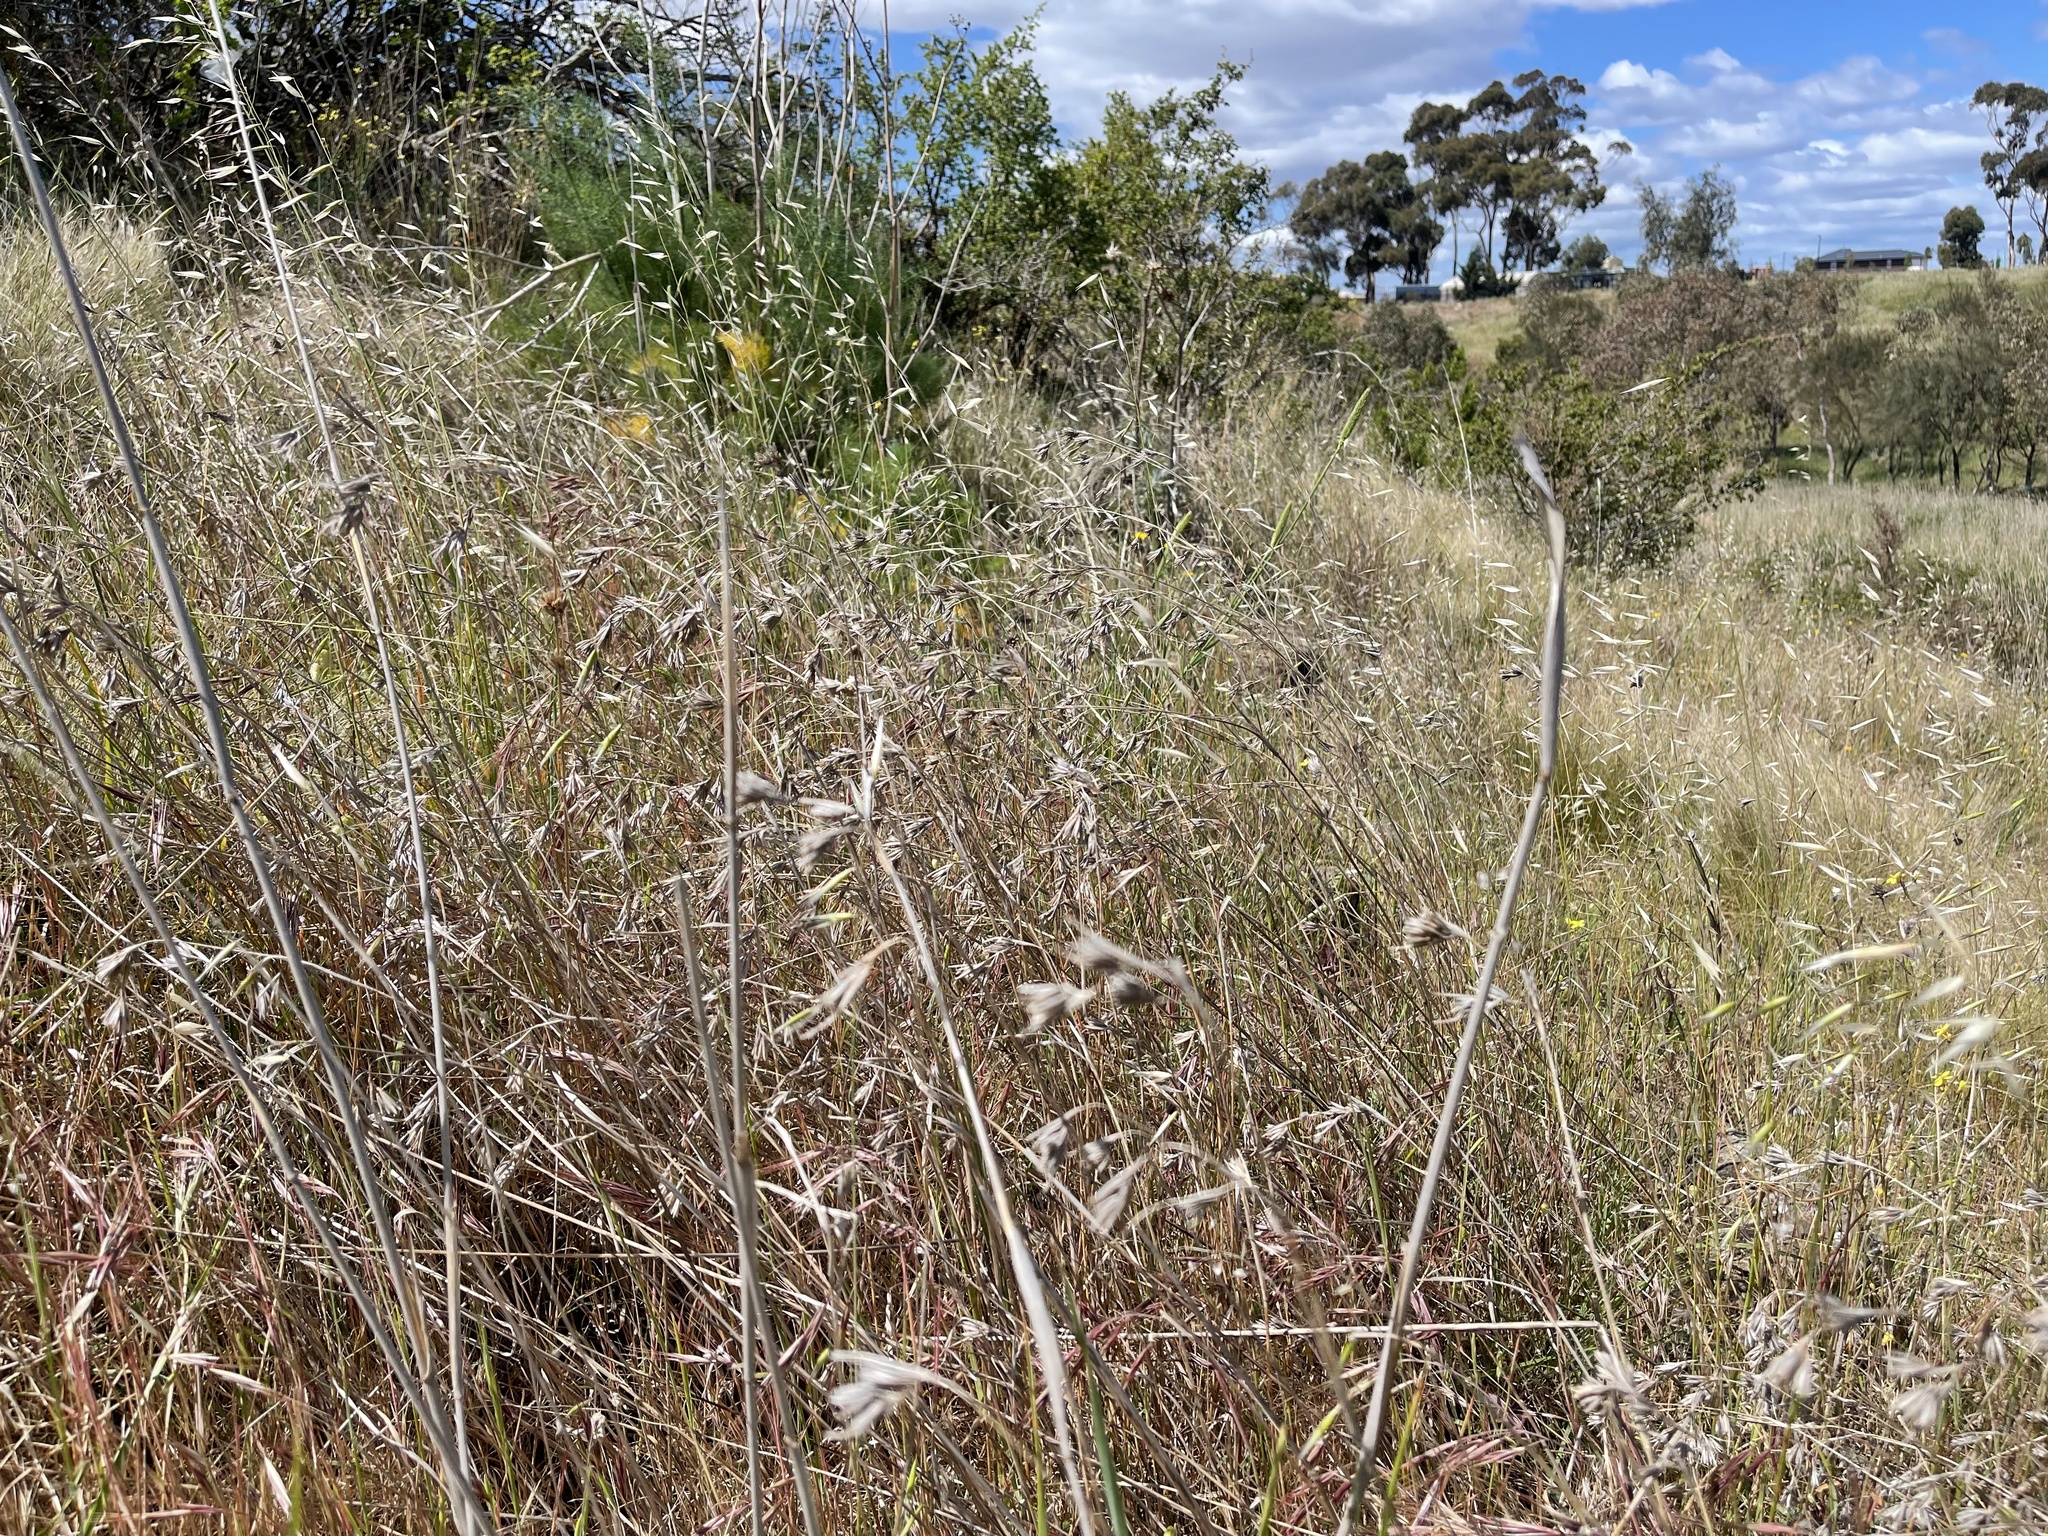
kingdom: Plantae
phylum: Tracheophyta
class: Liliopsida
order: Poales
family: Poaceae
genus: Themeda
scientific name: Themeda triandra
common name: Kangaroo grass
